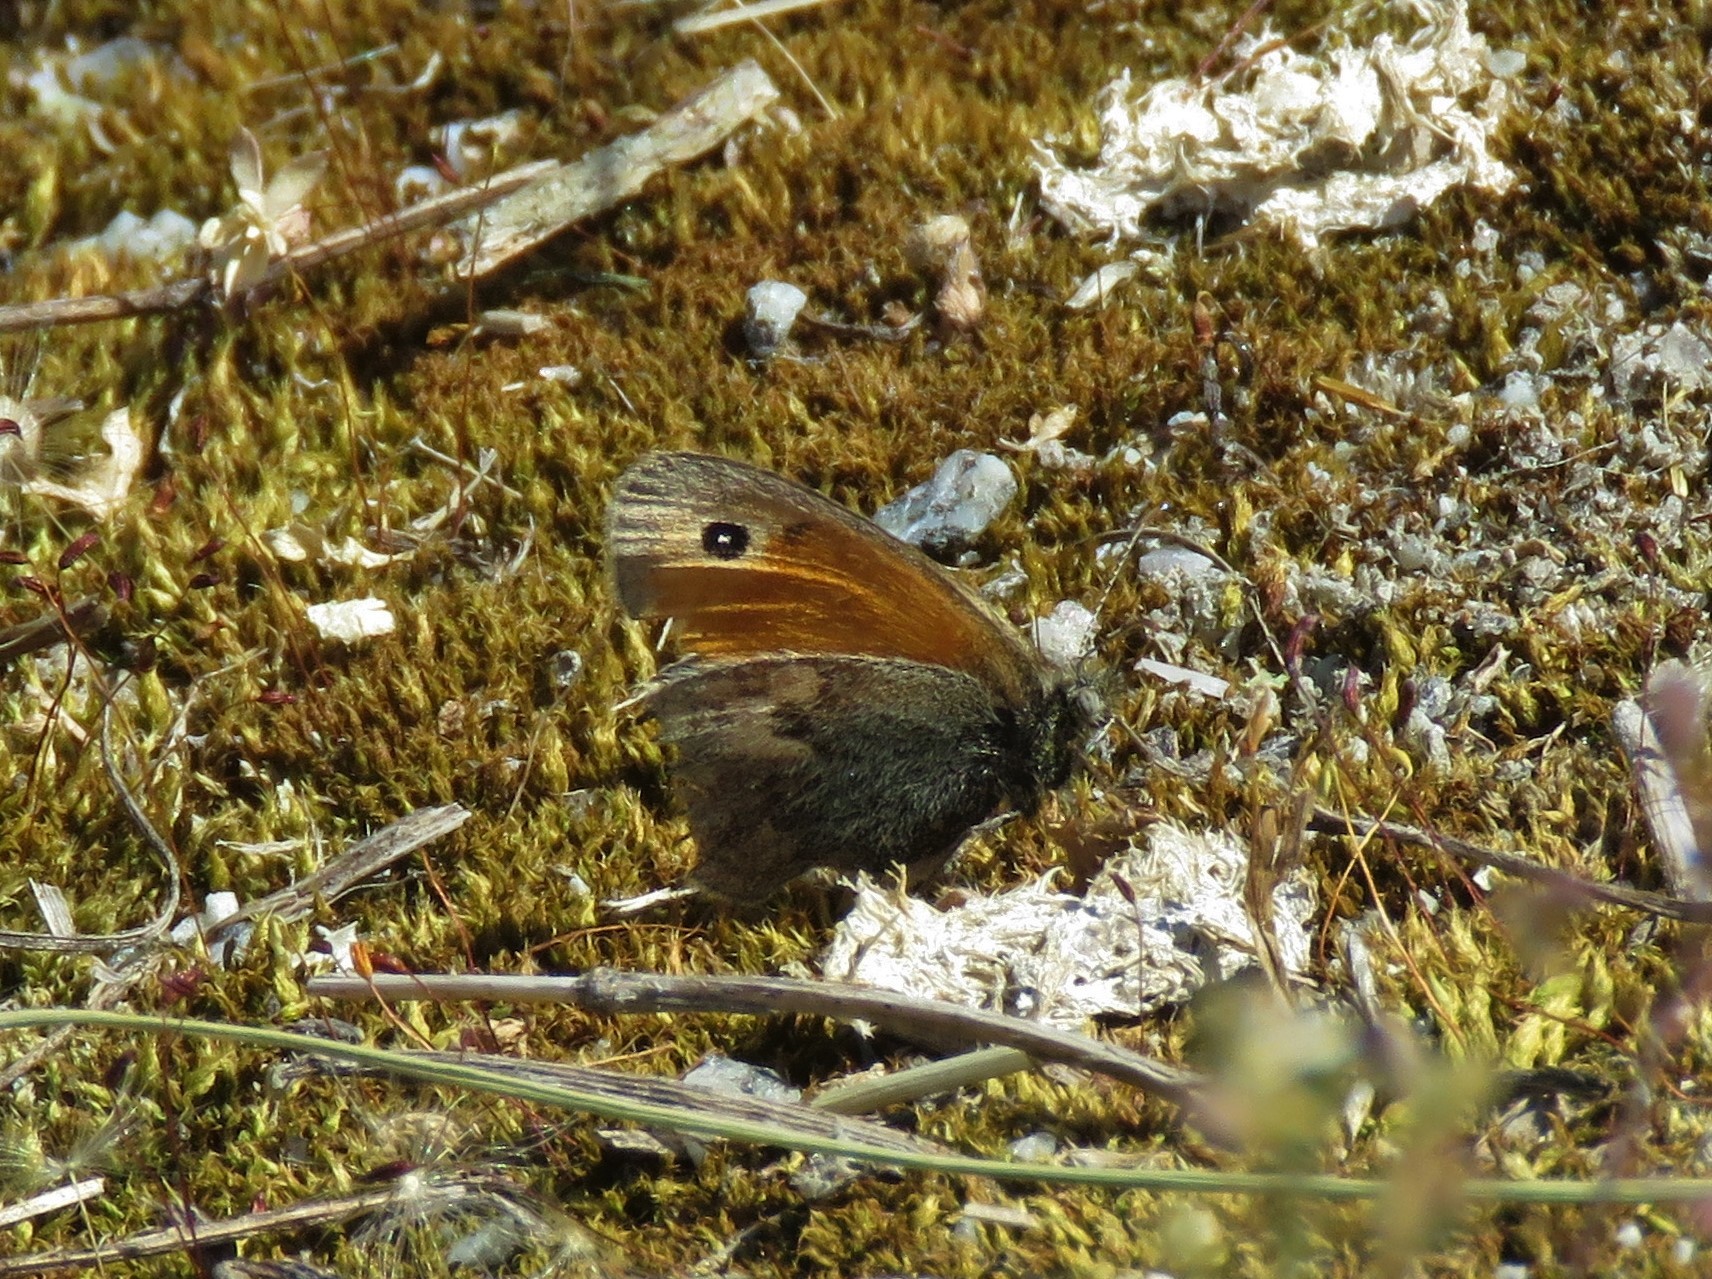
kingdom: Animalia
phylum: Arthropoda
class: Insecta
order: Lepidoptera
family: Nymphalidae
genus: Coenonympha
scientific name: Coenonympha pamphilus
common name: Small heath
